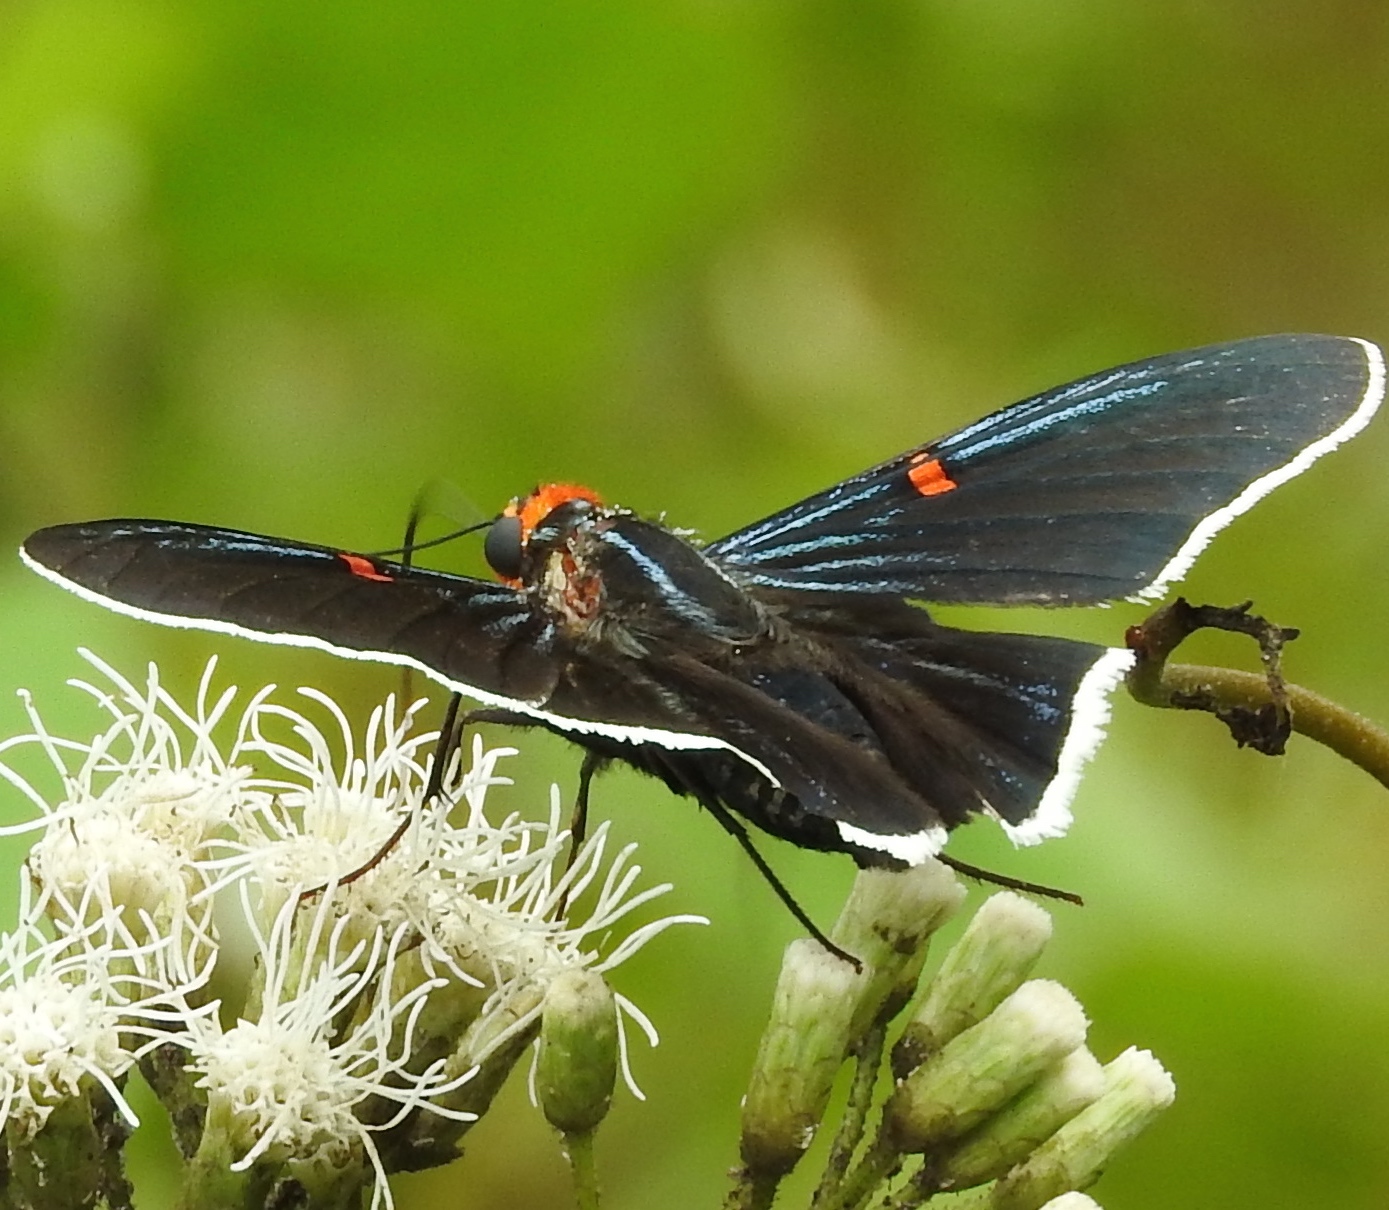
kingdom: Animalia
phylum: Arthropoda
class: Insecta
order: Lepidoptera
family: Hesperiidae
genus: Phocides
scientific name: Phocides lilea
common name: Guava skipper
